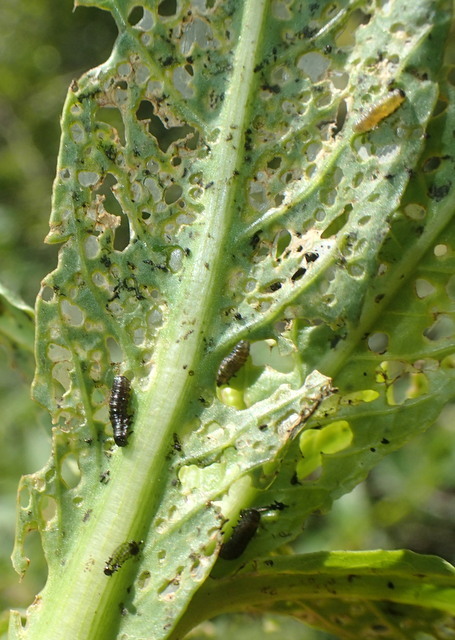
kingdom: Animalia
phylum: Arthropoda
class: Insecta
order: Coleoptera
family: Chrysomelidae
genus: Agasicles
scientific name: Agasicles hygrophila
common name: Alligatorweed flea beetle
